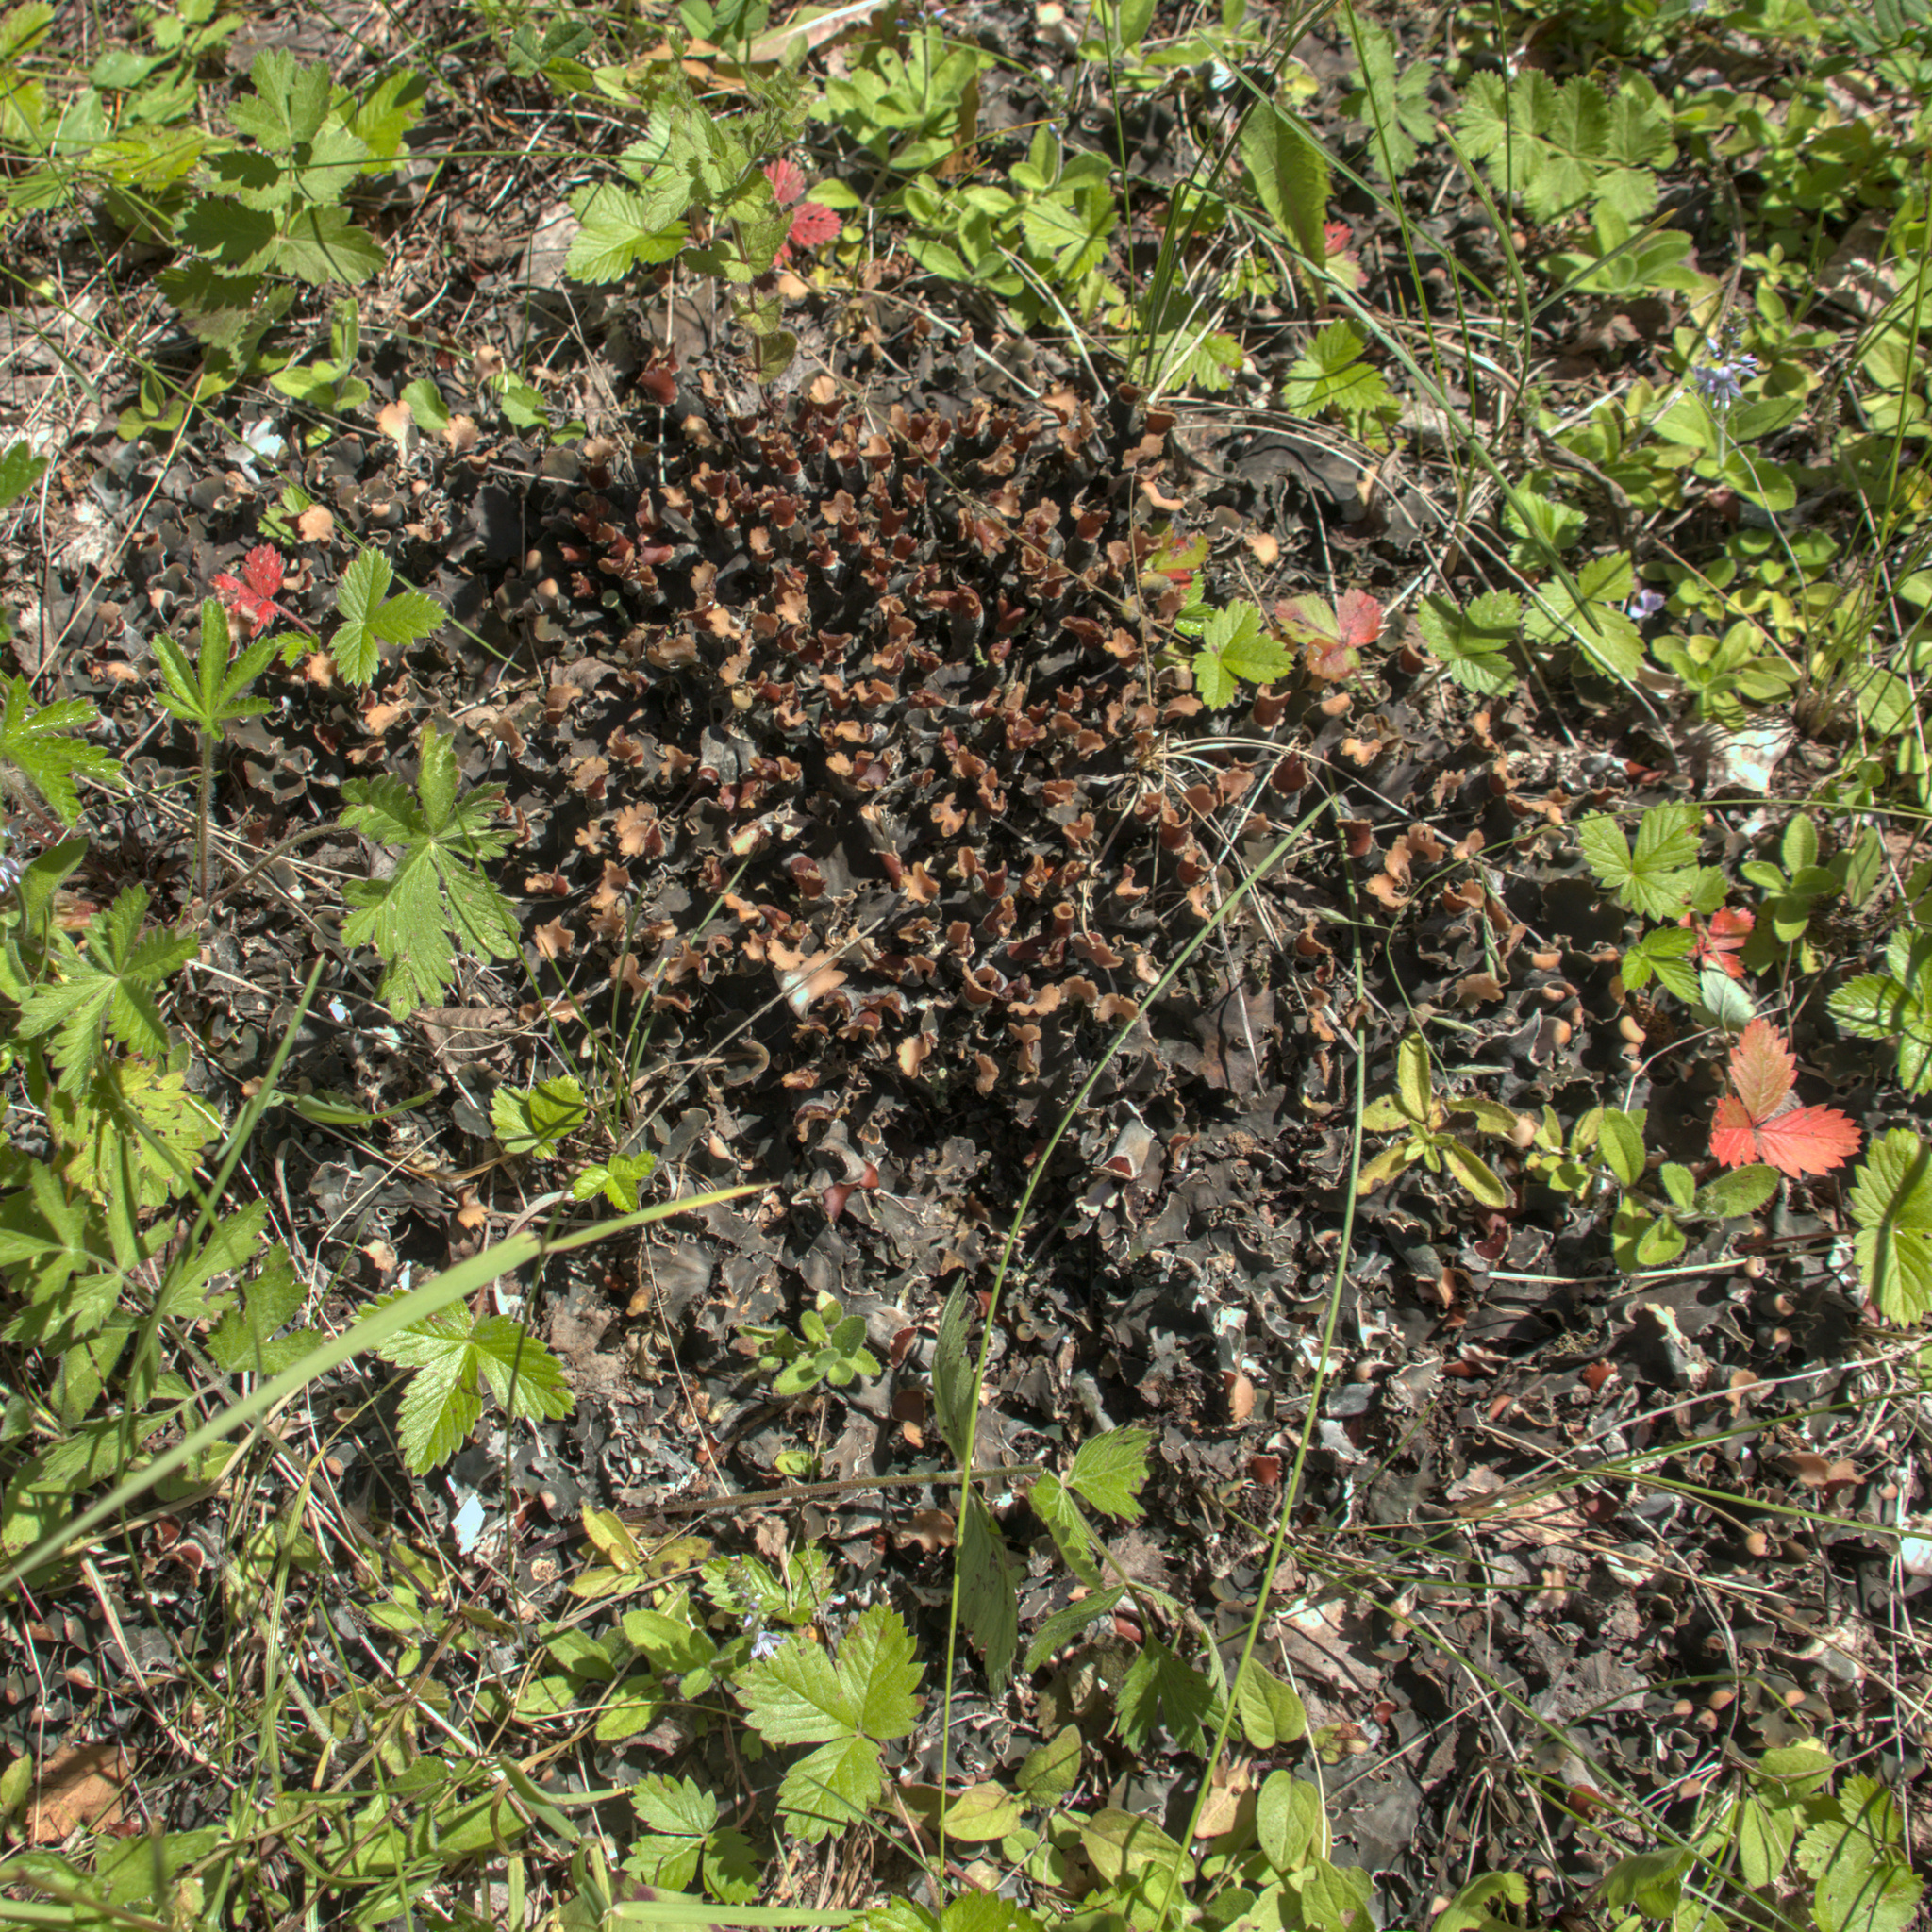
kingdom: Fungi
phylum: Ascomycota
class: Lecanoromycetes
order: Peltigerales
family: Peltigeraceae
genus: Peltigera
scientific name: Peltigera
